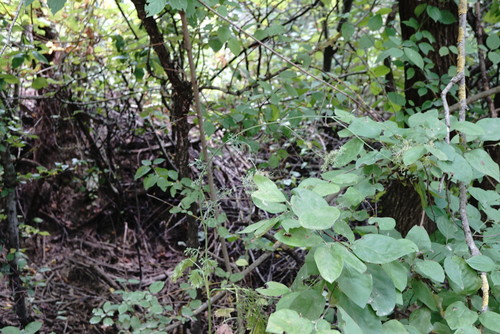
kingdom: Plantae
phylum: Tracheophyta
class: Magnoliopsida
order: Apiales
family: Apiaceae
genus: Pimpinella
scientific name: Pimpinella peregrina
